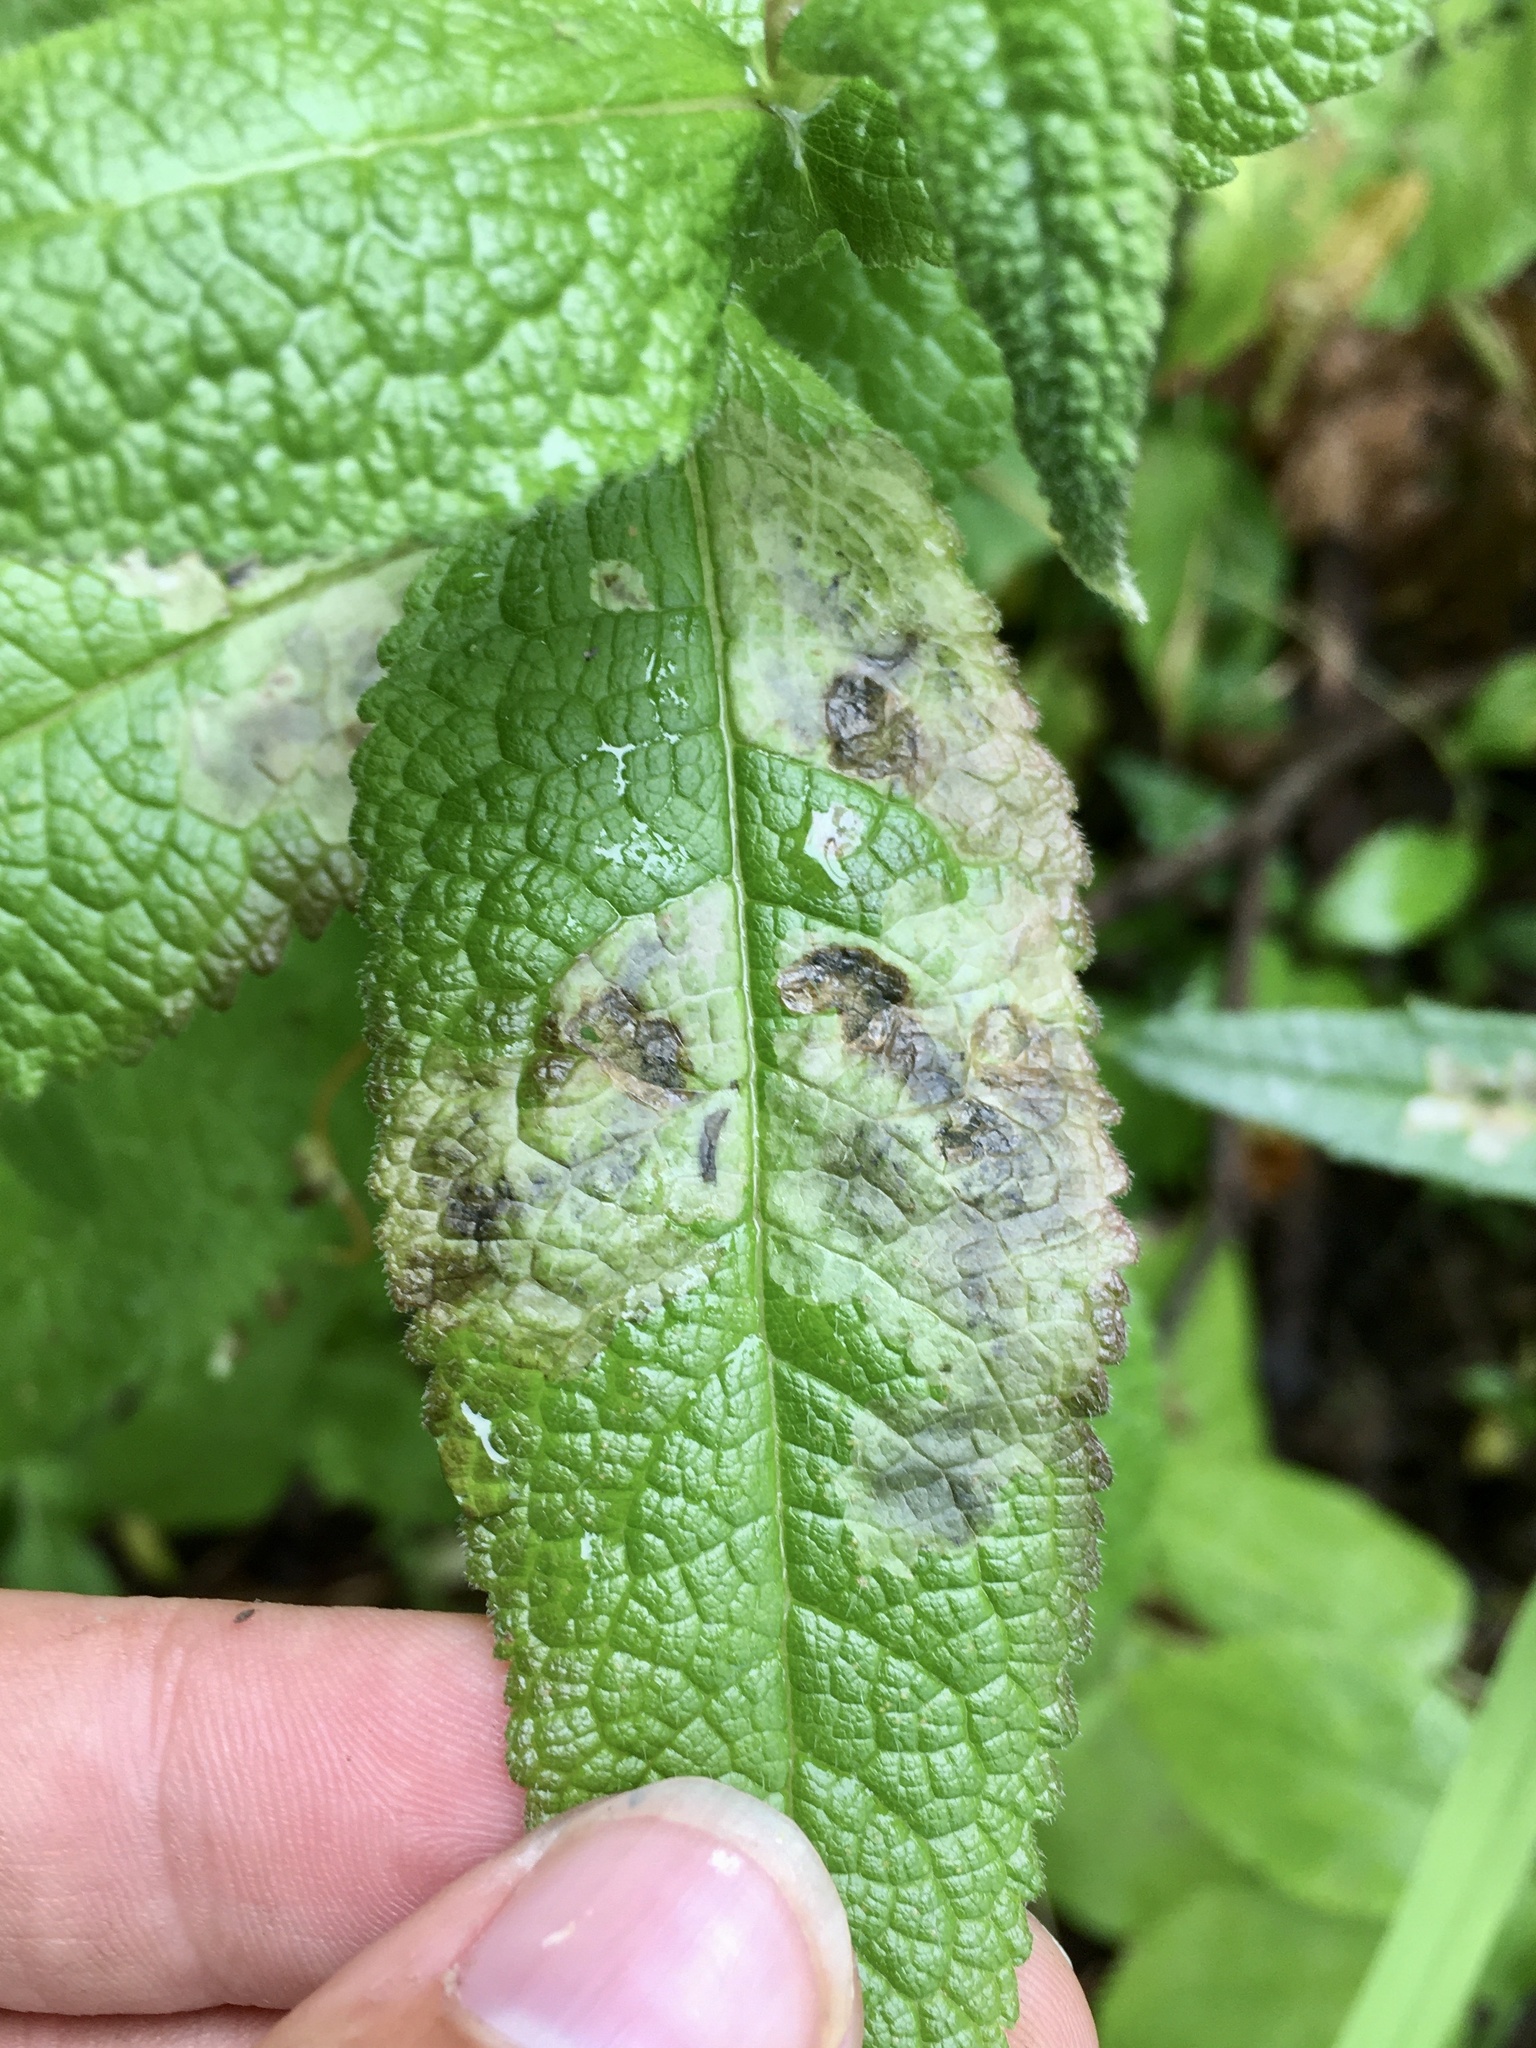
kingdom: Animalia
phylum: Arthropoda
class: Insecta
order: Diptera
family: Agromyzidae
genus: Calycomyza
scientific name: Calycomyza flavinotum
